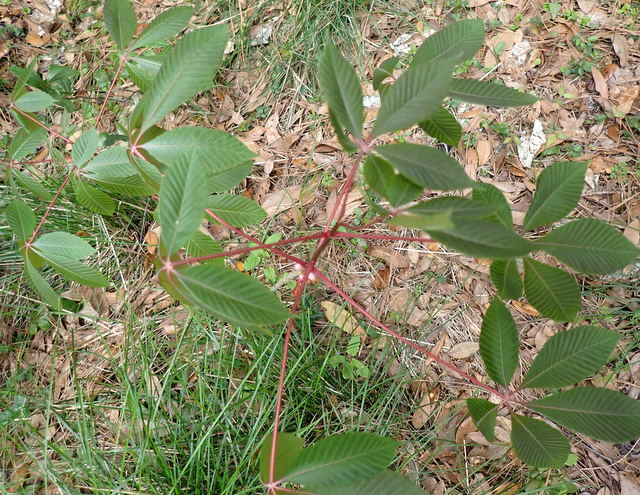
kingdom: Plantae
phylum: Tracheophyta
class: Magnoliopsida
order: Sapindales
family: Sapindaceae
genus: Aesculus
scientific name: Aesculus pavia
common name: Red buckeye
